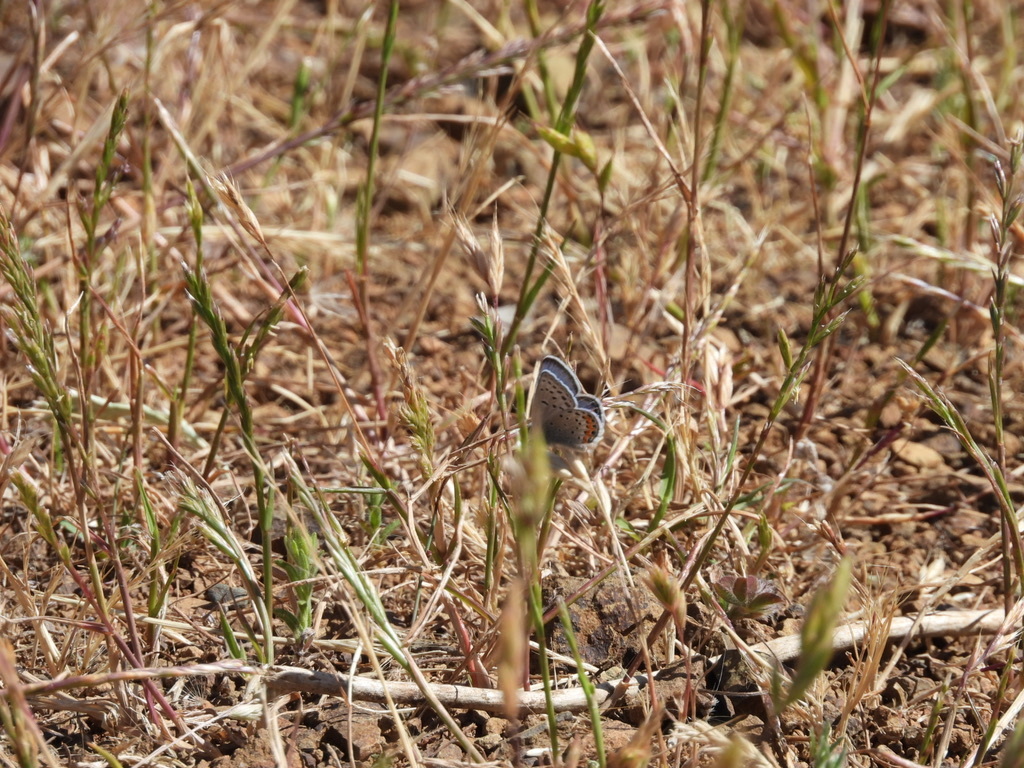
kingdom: Animalia
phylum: Arthropoda
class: Insecta
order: Lepidoptera
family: Lycaenidae
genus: Icaricia
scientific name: Icaricia acmon
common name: Acmon blue
